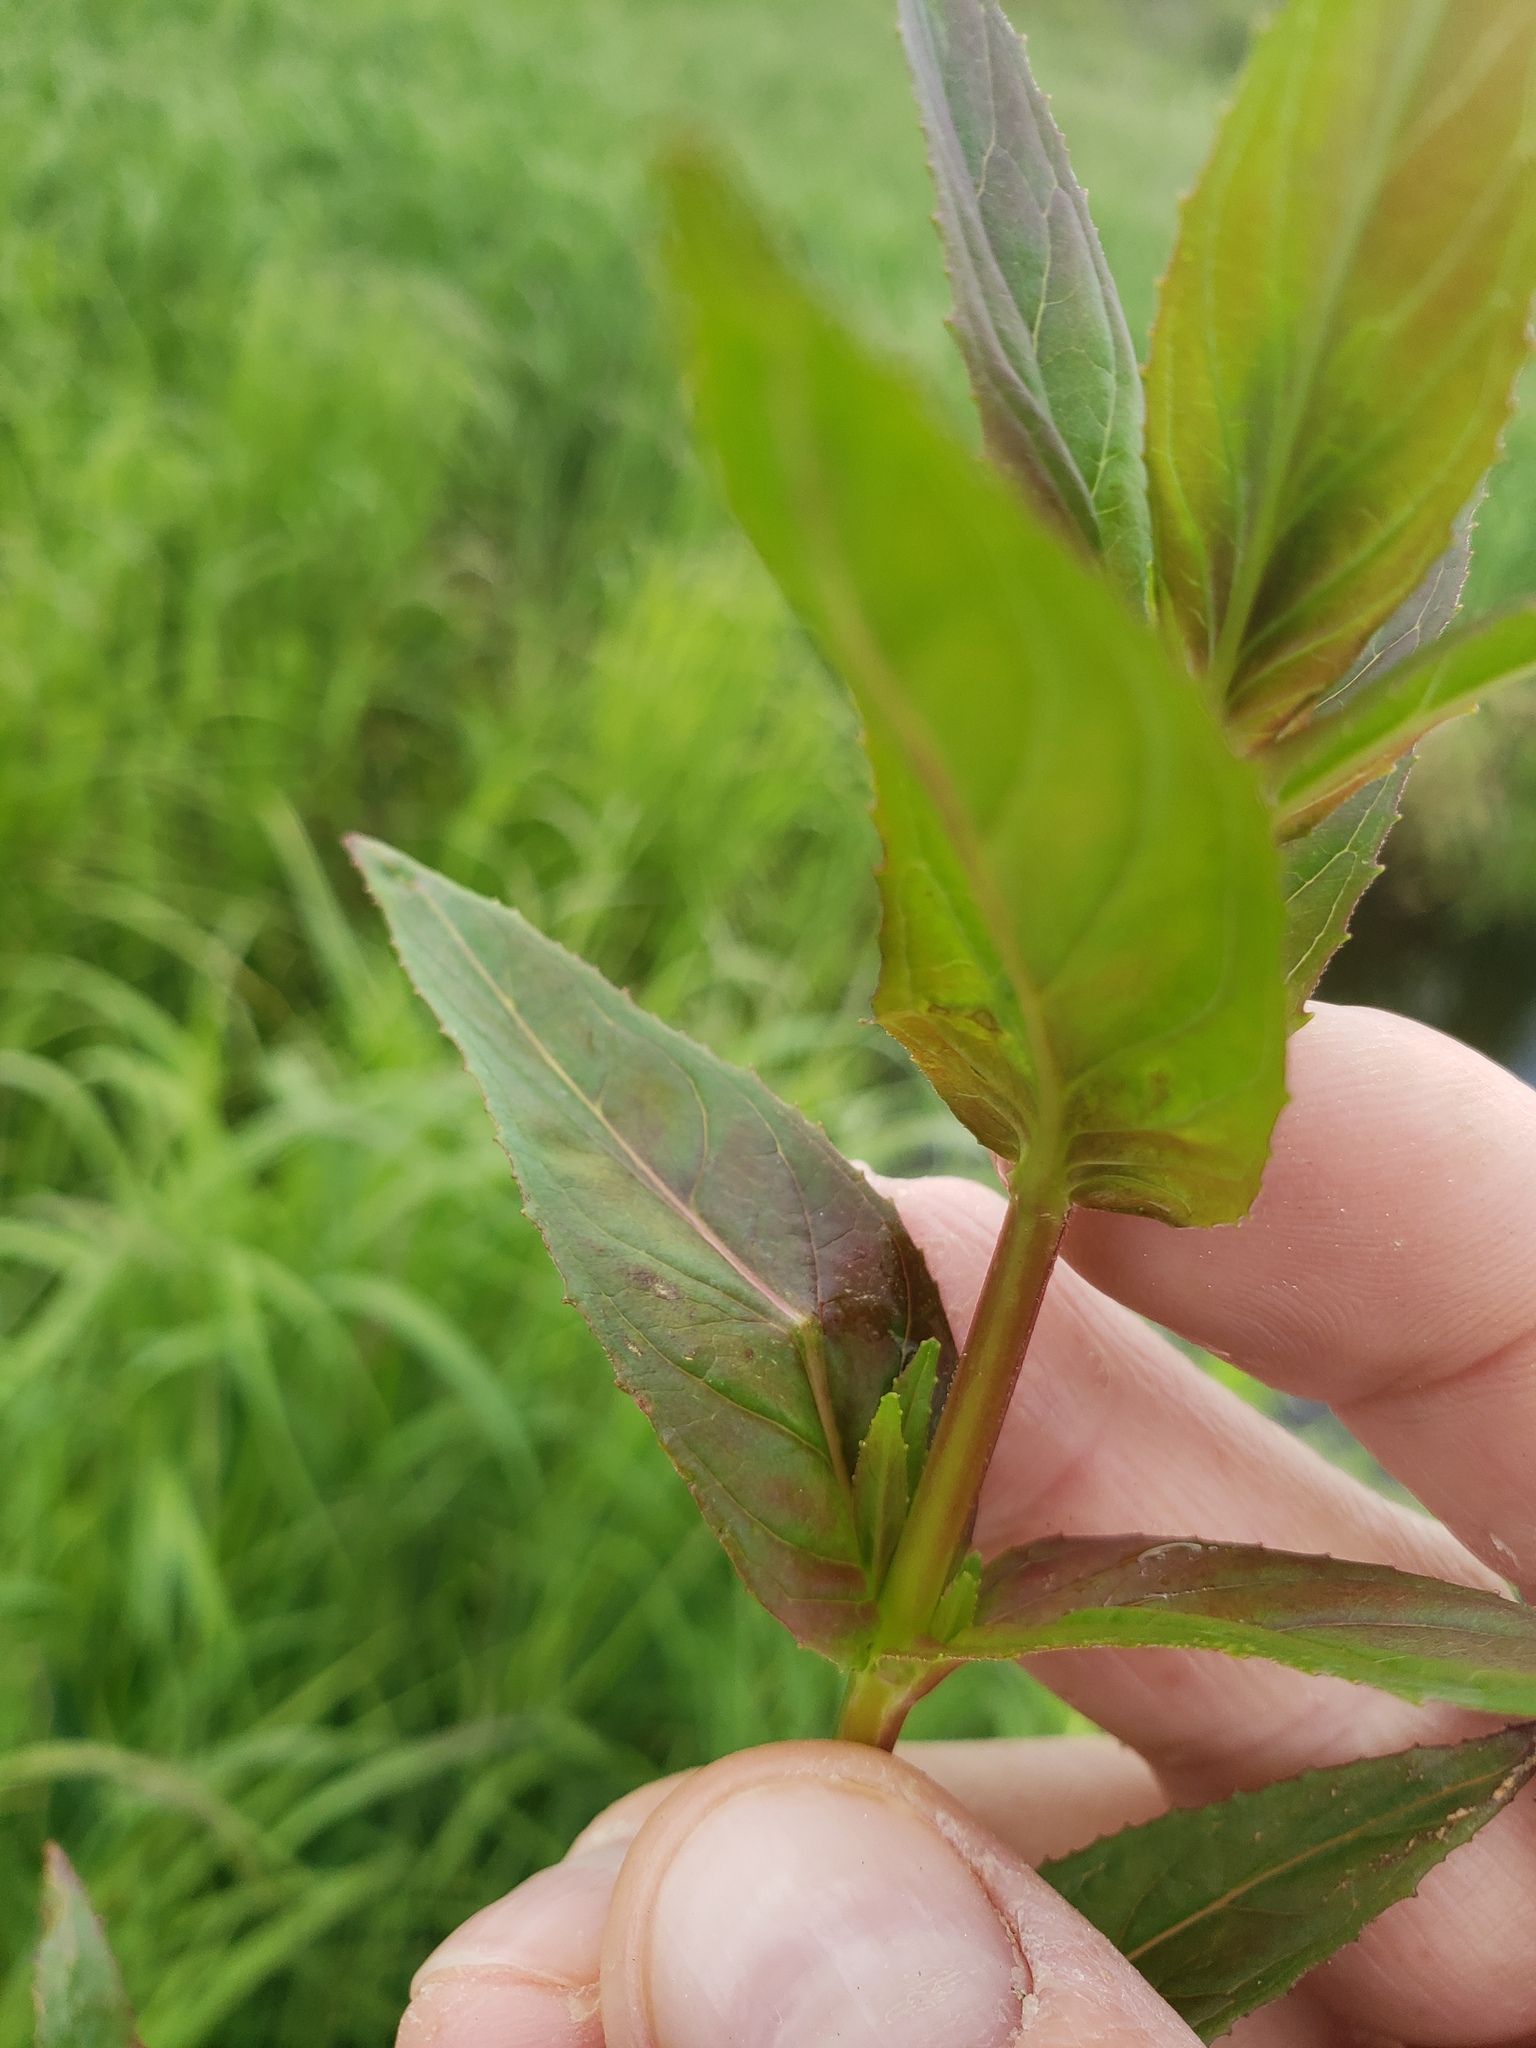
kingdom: Plantae
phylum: Tracheophyta
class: Magnoliopsida
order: Myrtales
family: Onagraceae
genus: Epilobium
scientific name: Epilobium ciliatum
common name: American willowherb
